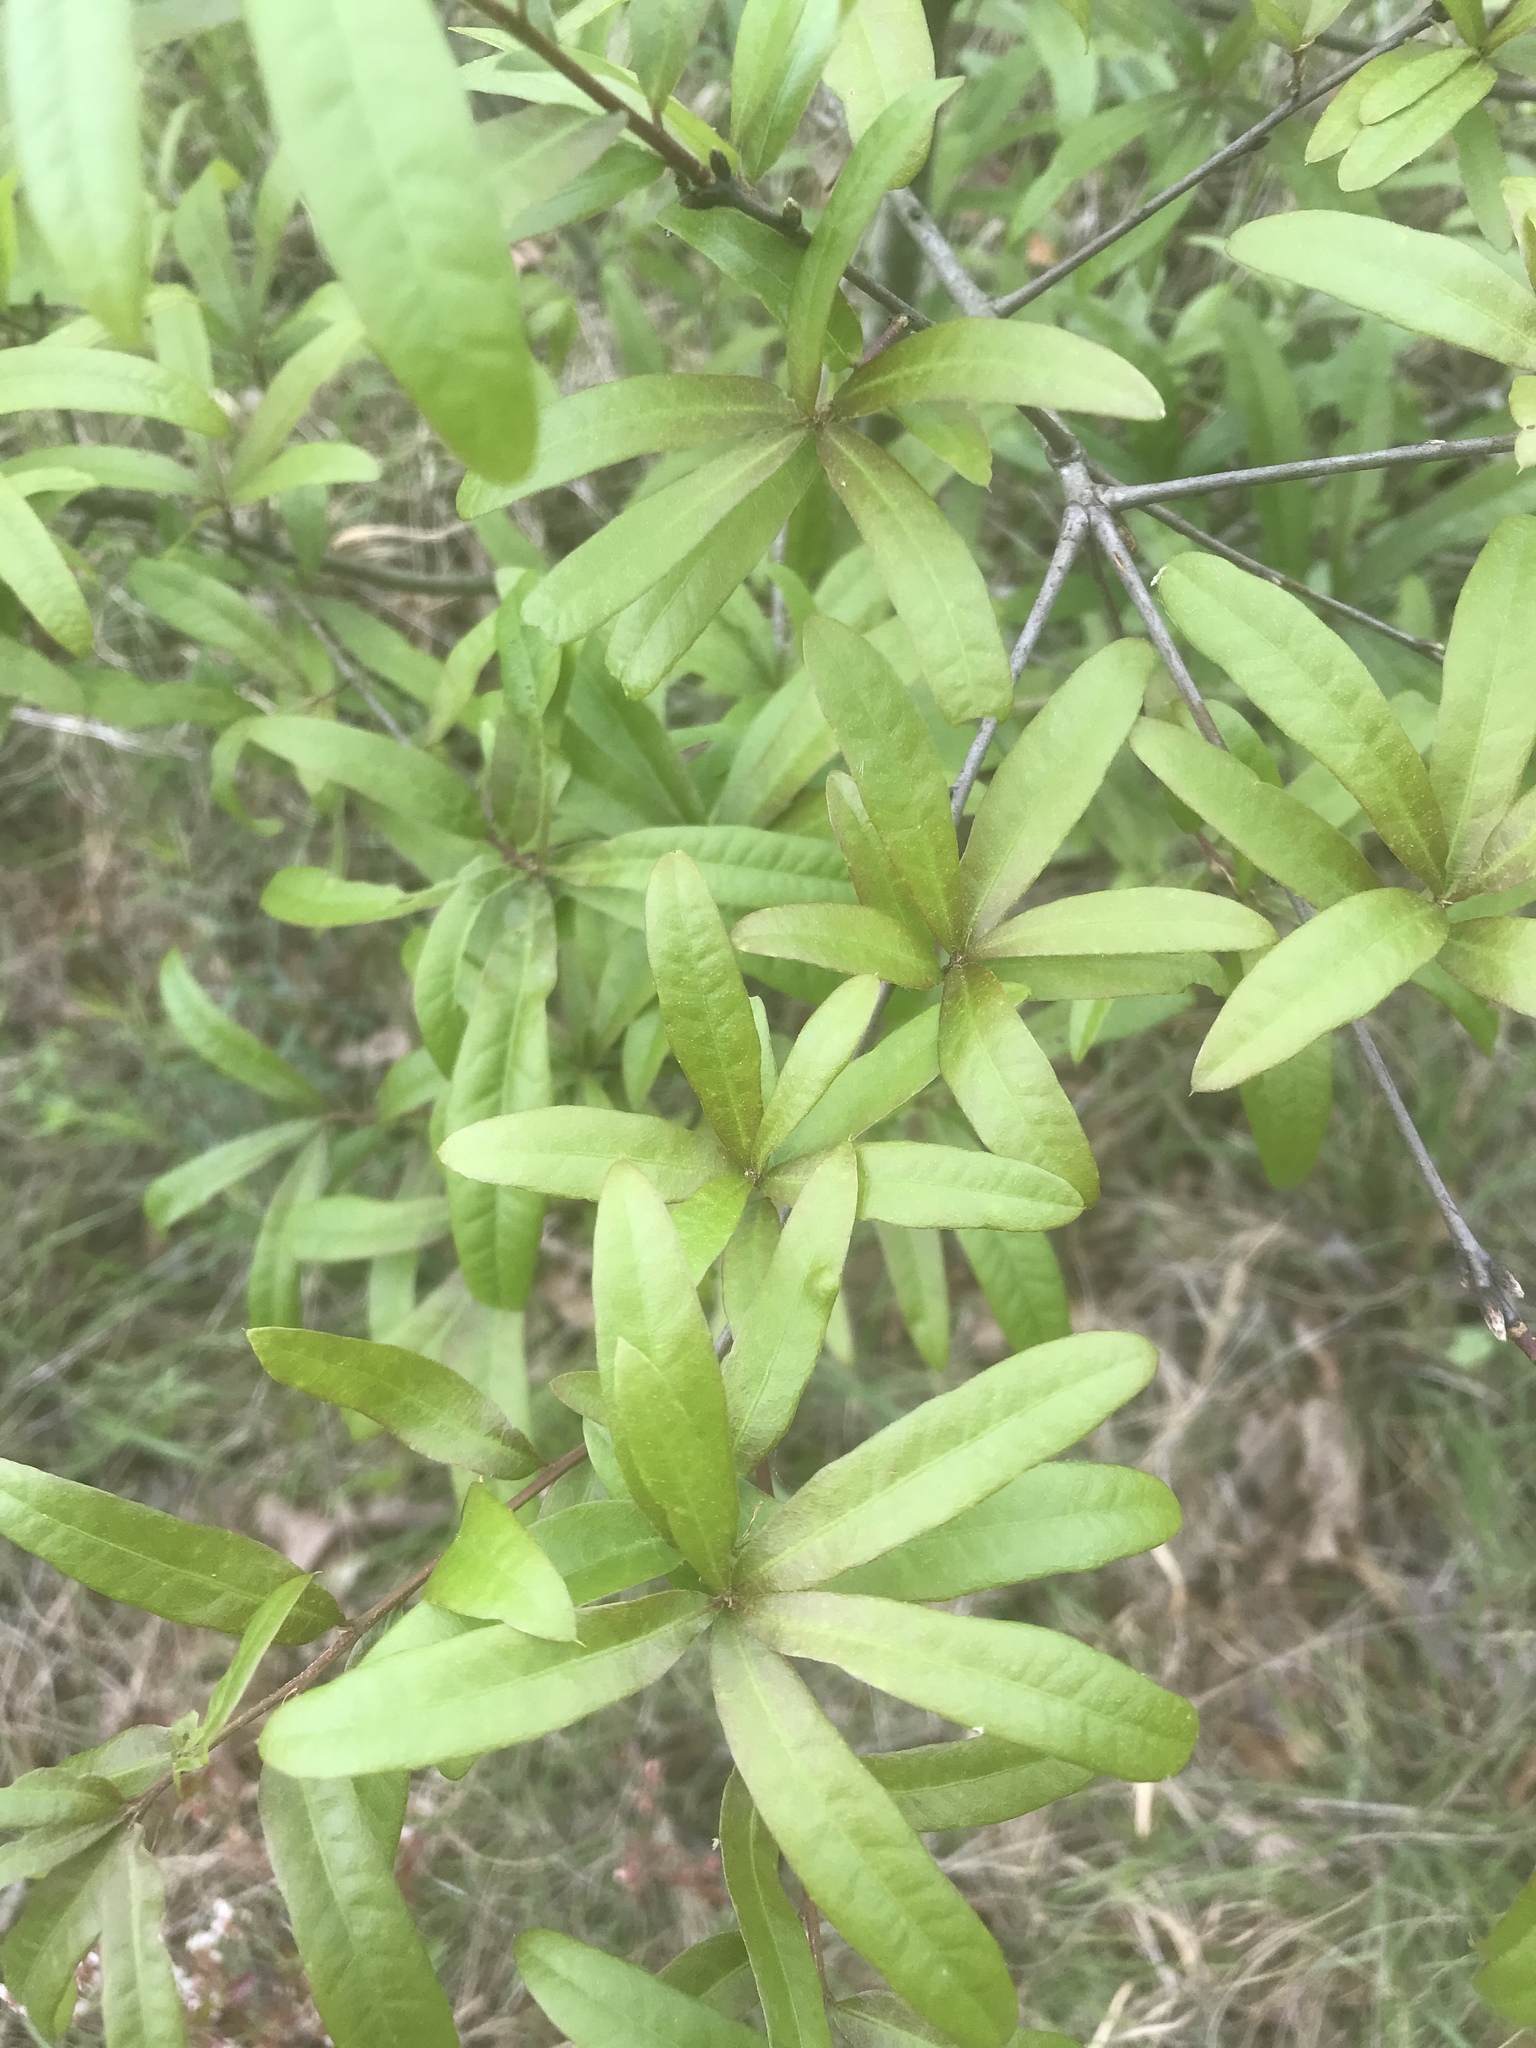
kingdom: Plantae
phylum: Tracheophyta
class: Magnoliopsida
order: Fagales
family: Fagaceae
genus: Quercus
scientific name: Quercus phellos
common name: Willow oak
